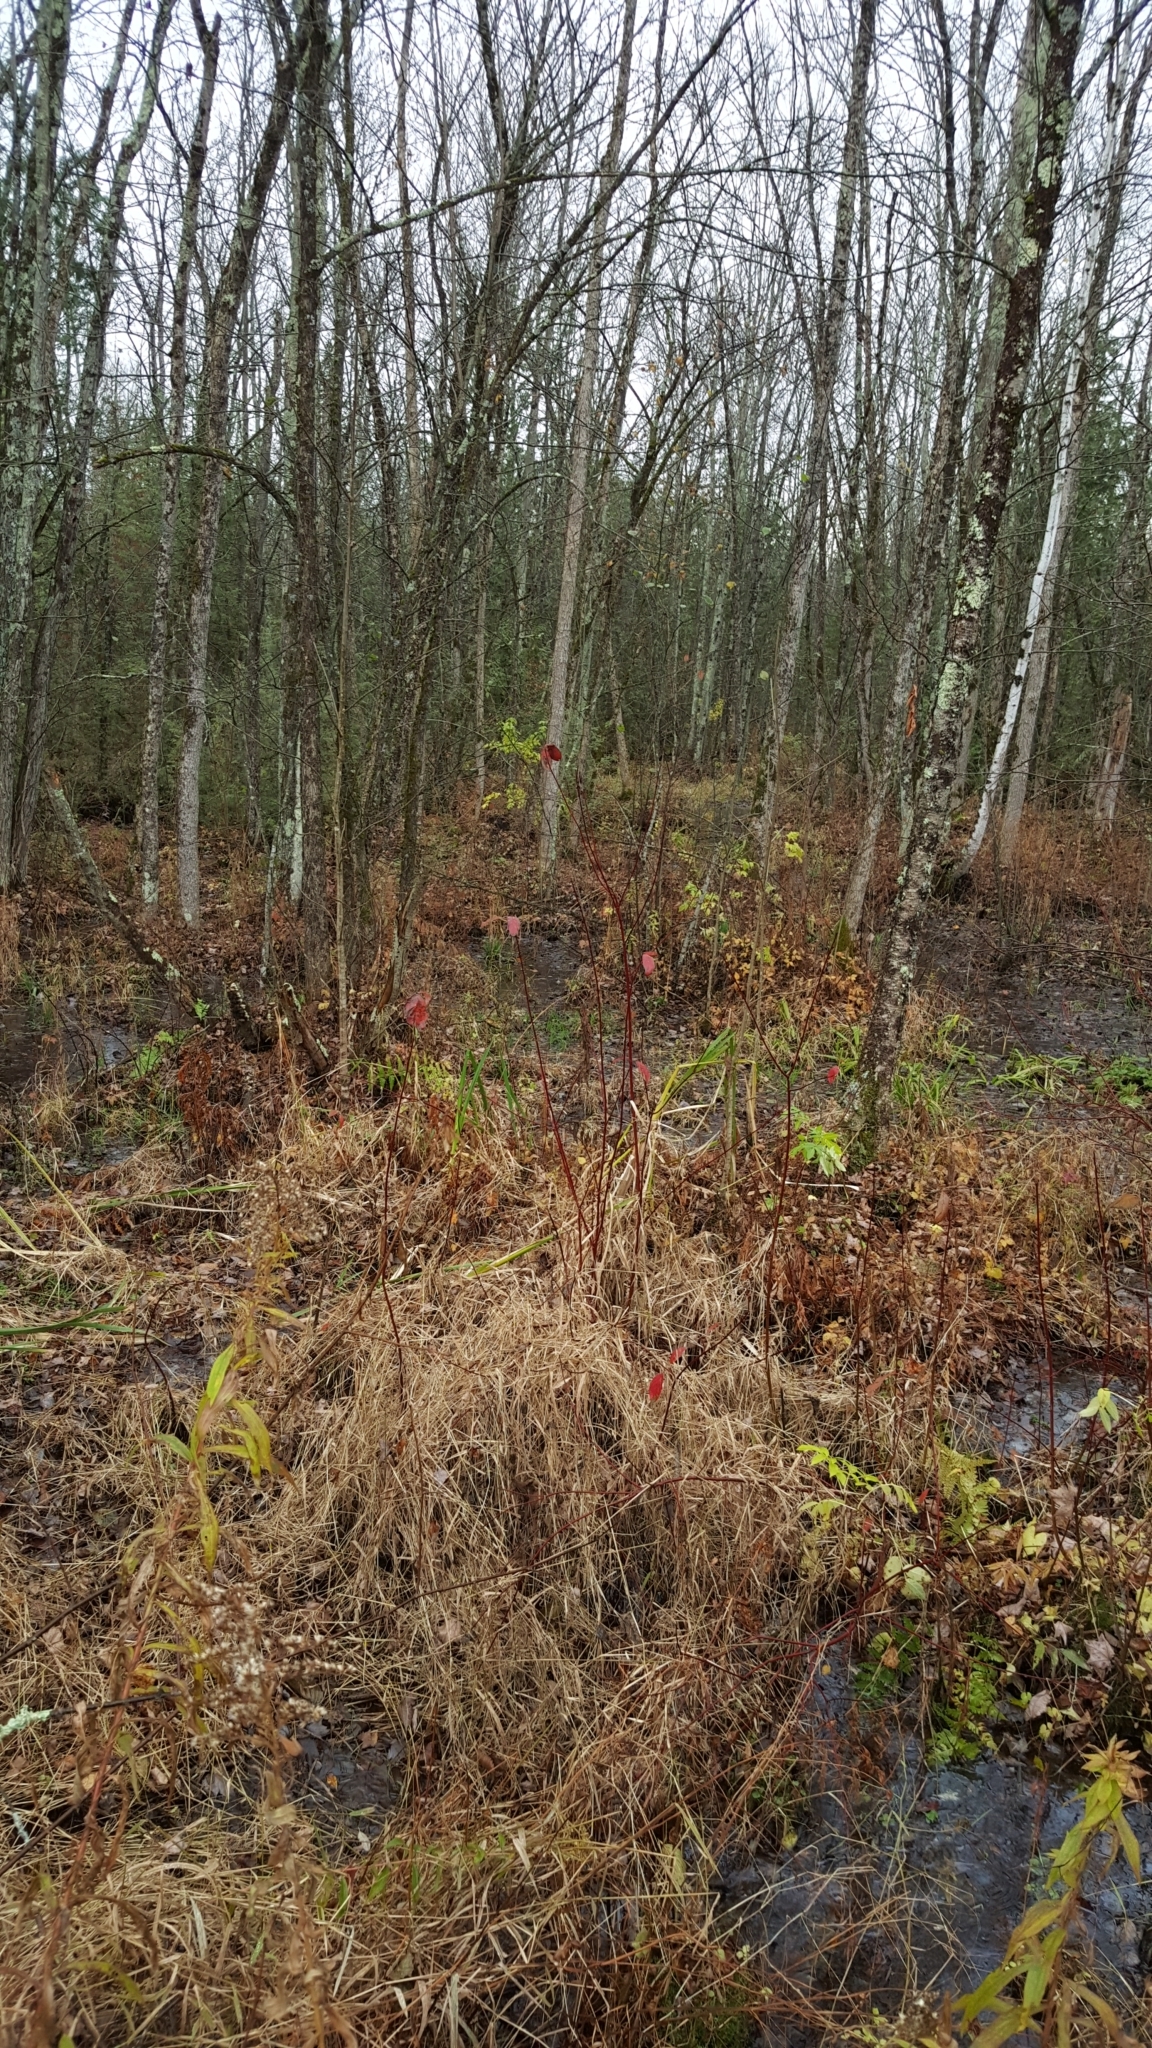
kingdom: Plantae
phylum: Tracheophyta
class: Magnoliopsida
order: Cornales
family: Cornaceae
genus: Cornus
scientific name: Cornus sericea
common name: Red-osier dogwood
